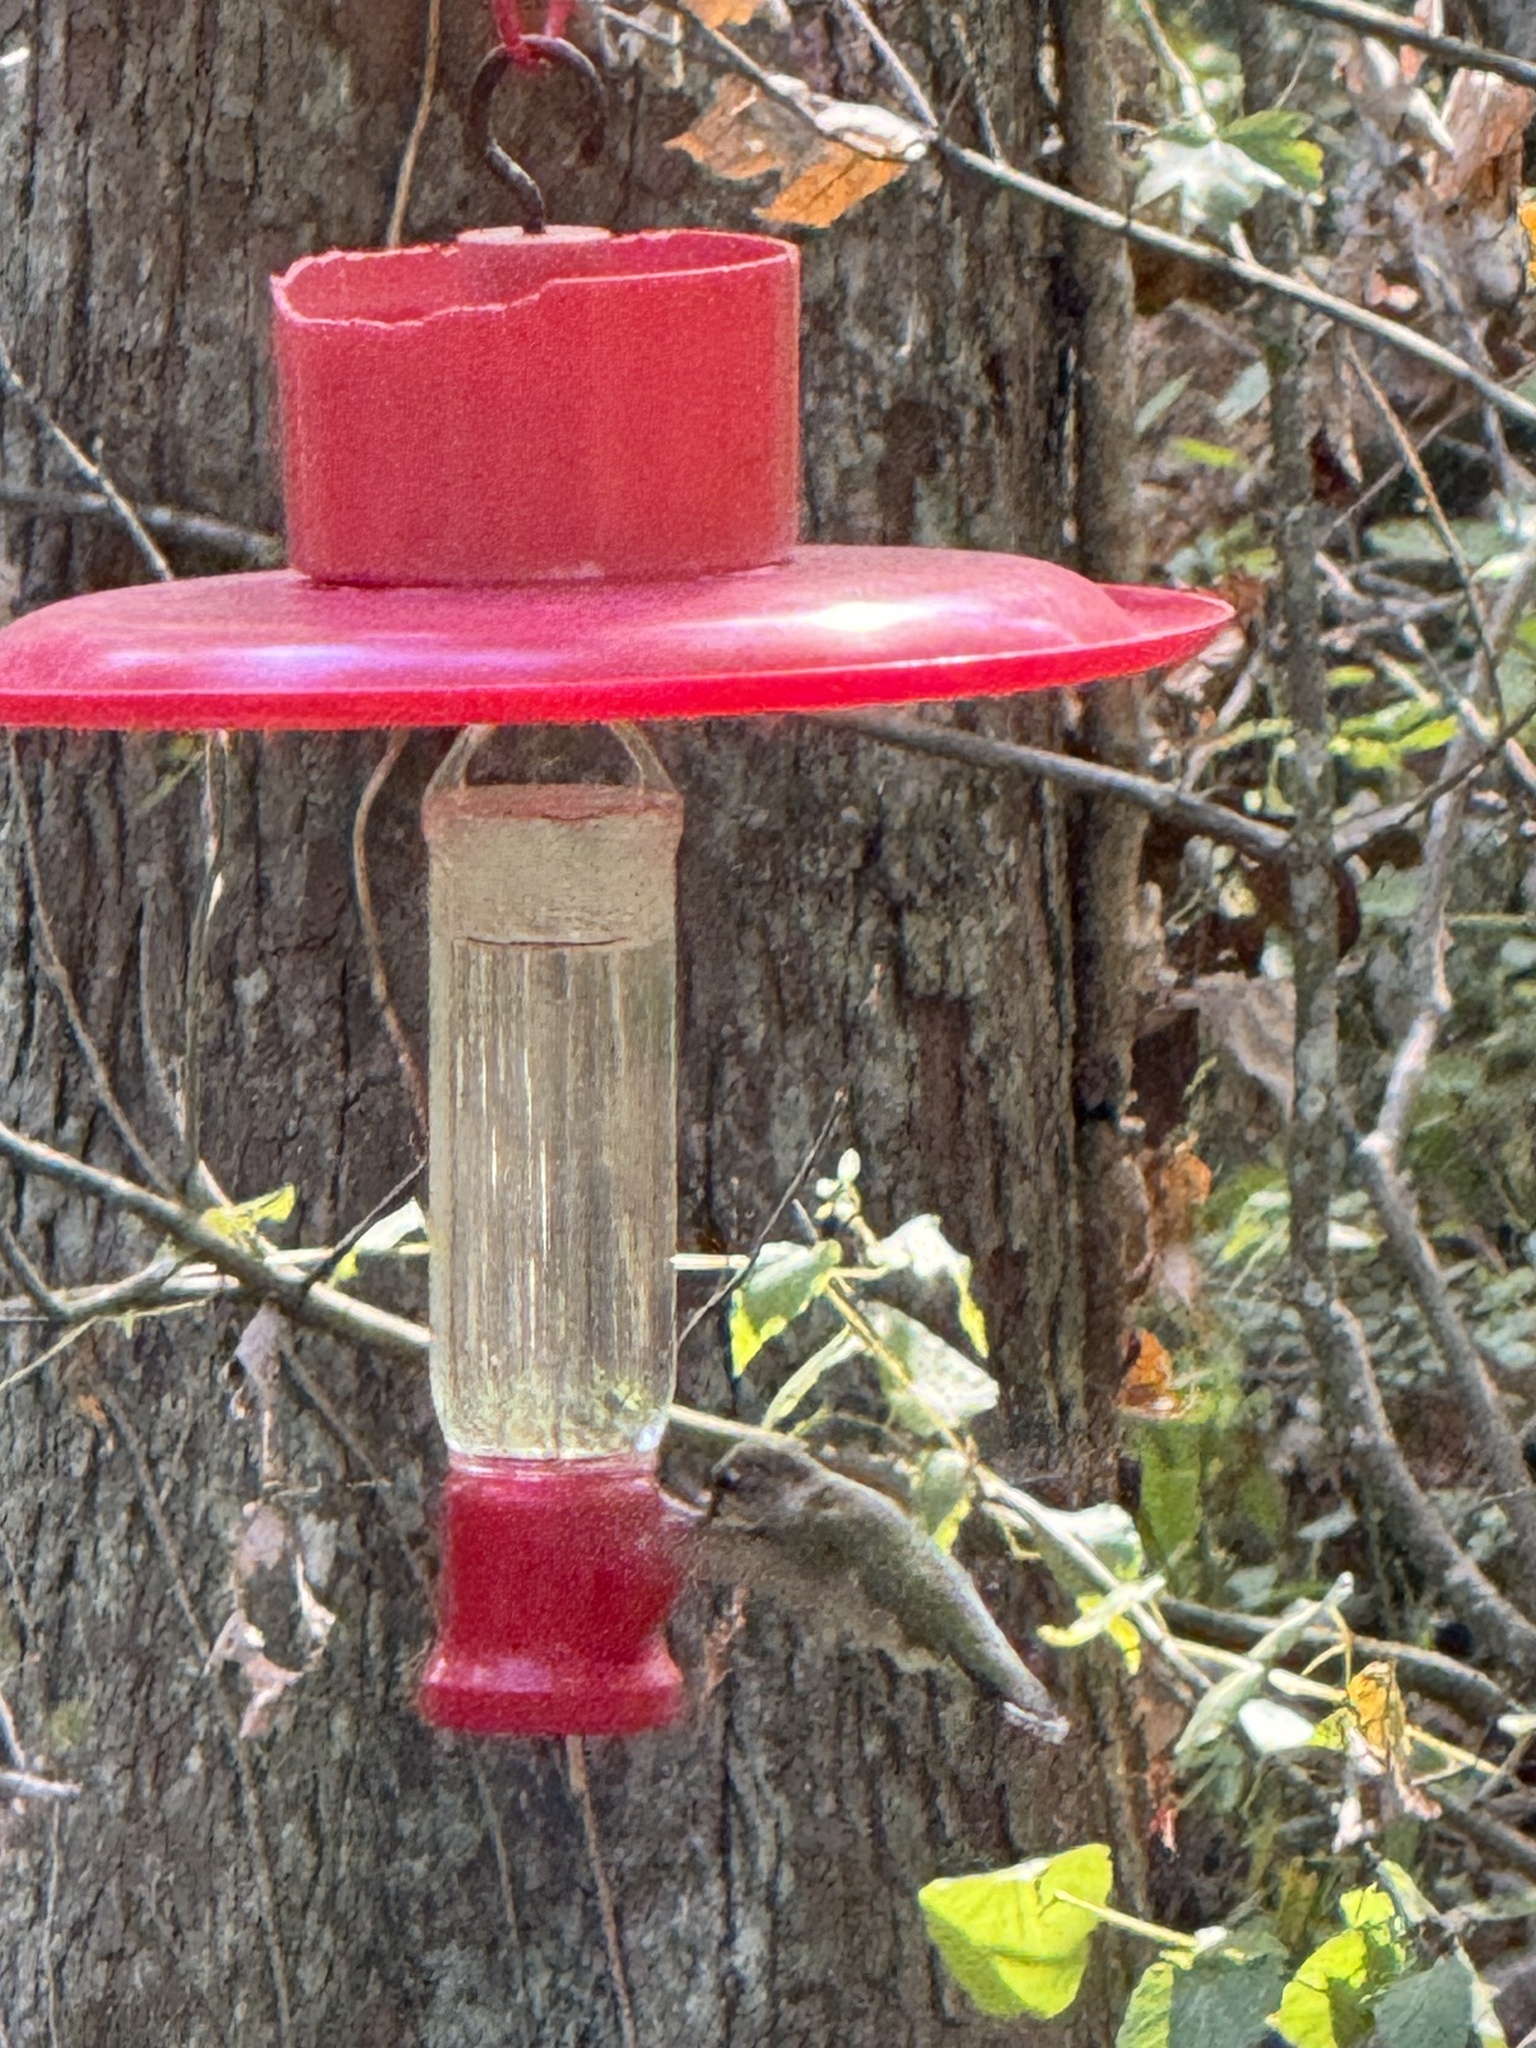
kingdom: Animalia
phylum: Chordata
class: Aves
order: Apodiformes
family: Trochilidae
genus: Archilochus
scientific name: Archilochus colubris
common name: Ruby-throated hummingbird
